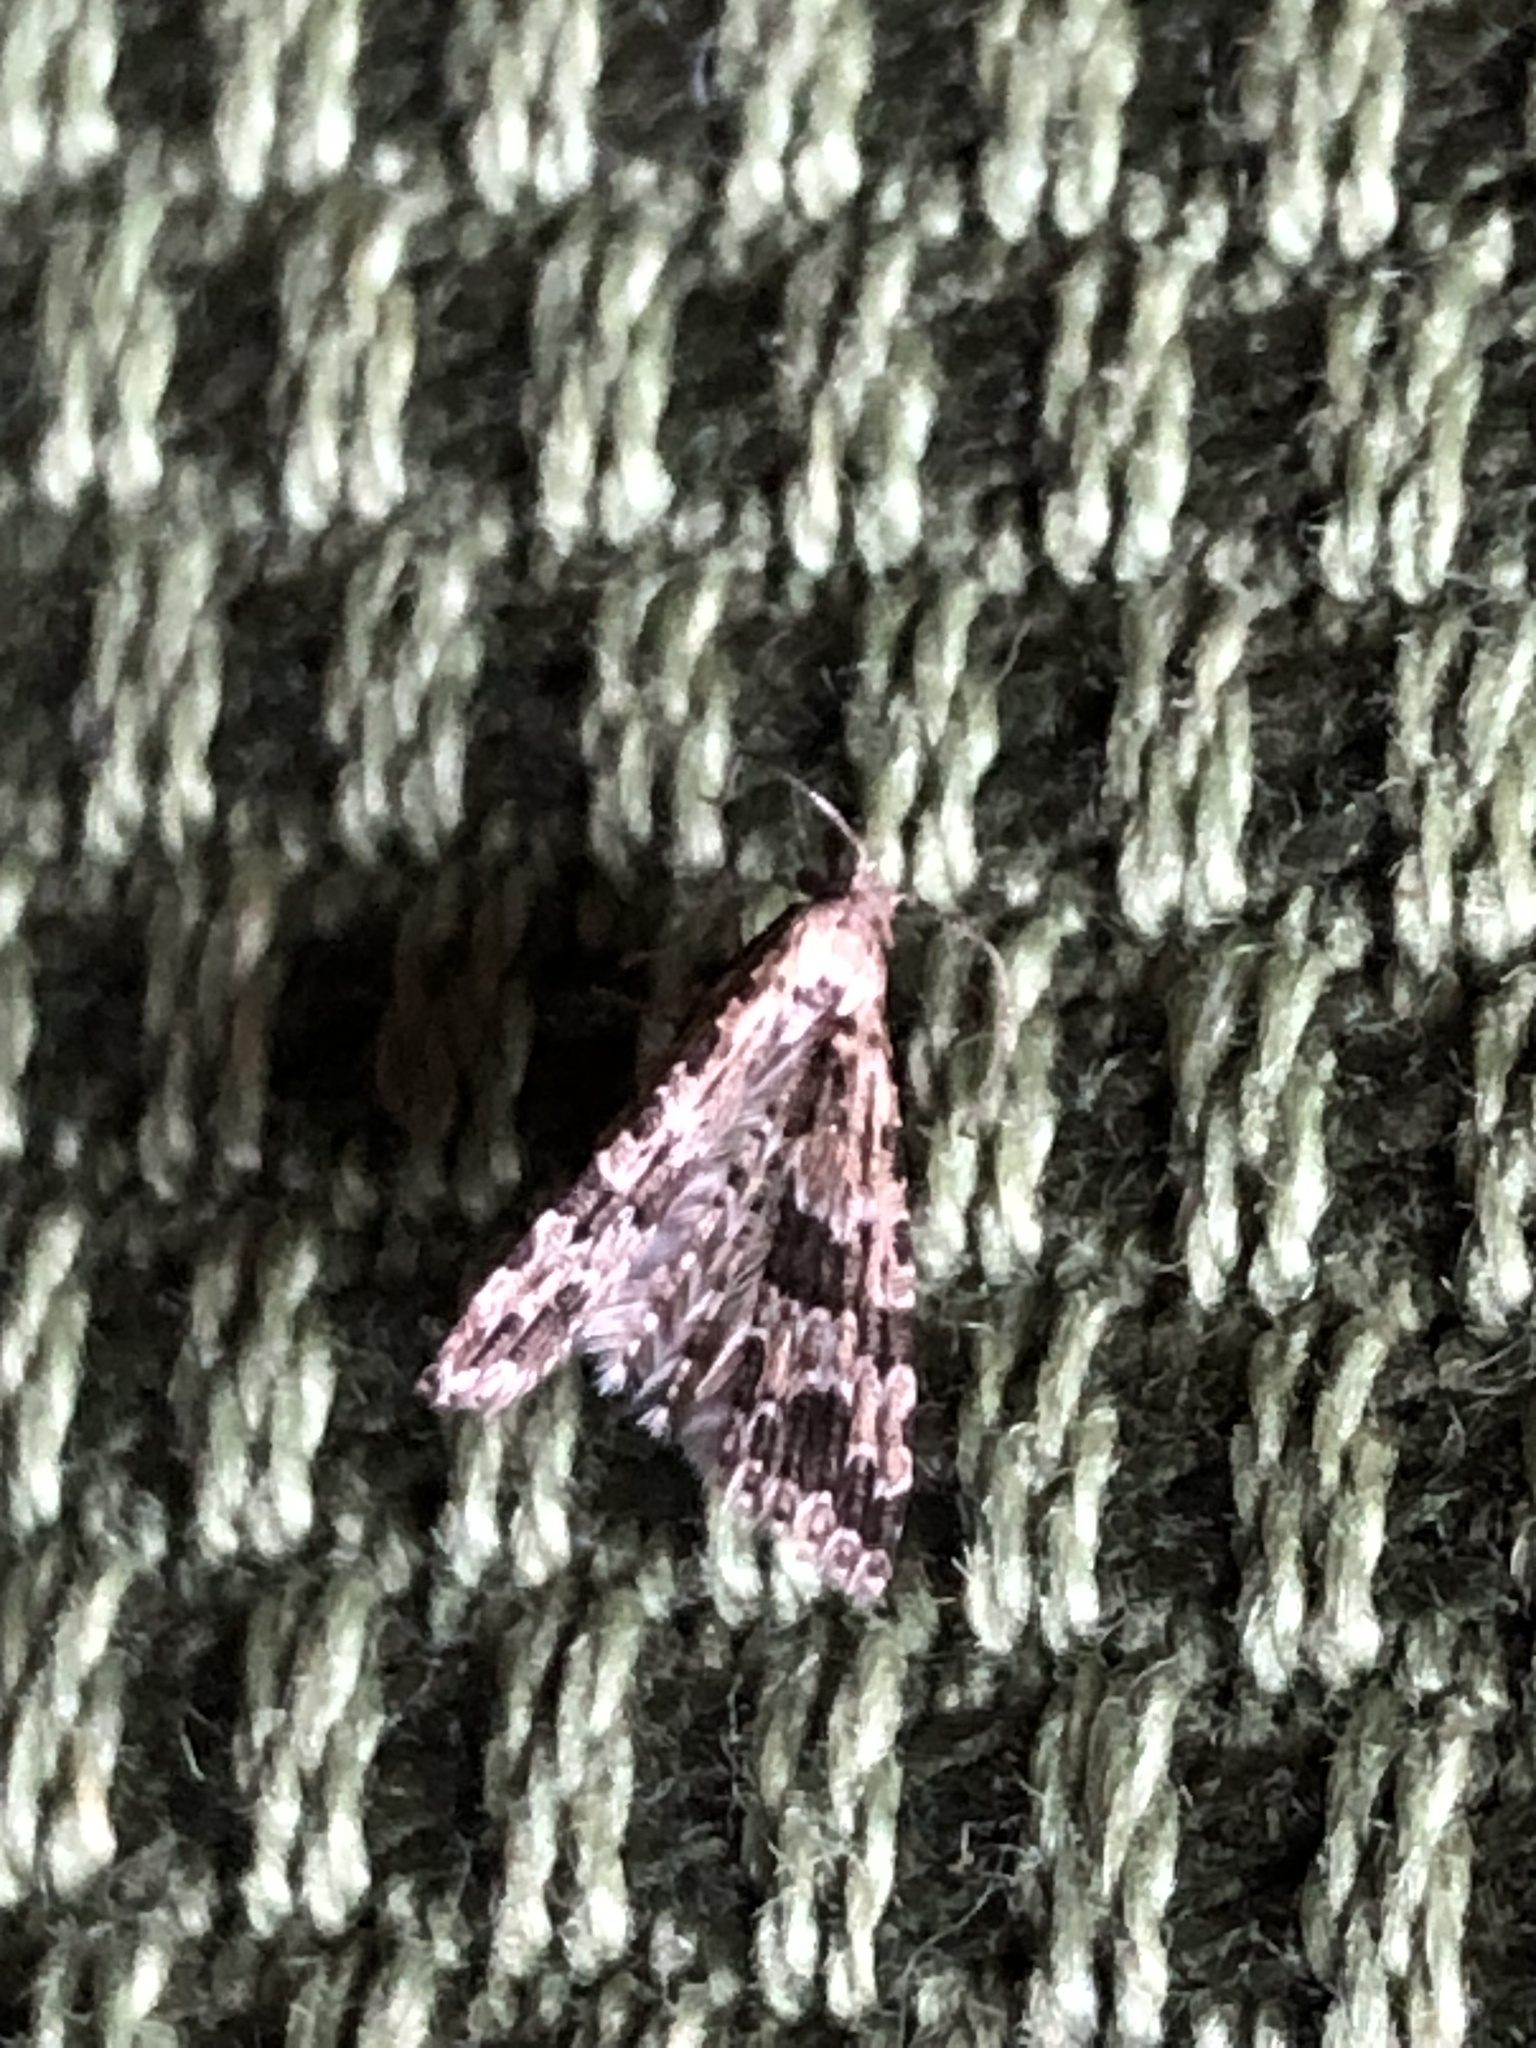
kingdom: Animalia
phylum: Arthropoda
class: Insecta
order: Lepidoptera
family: Alucitidae
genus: Alucita
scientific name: Alucita montana
